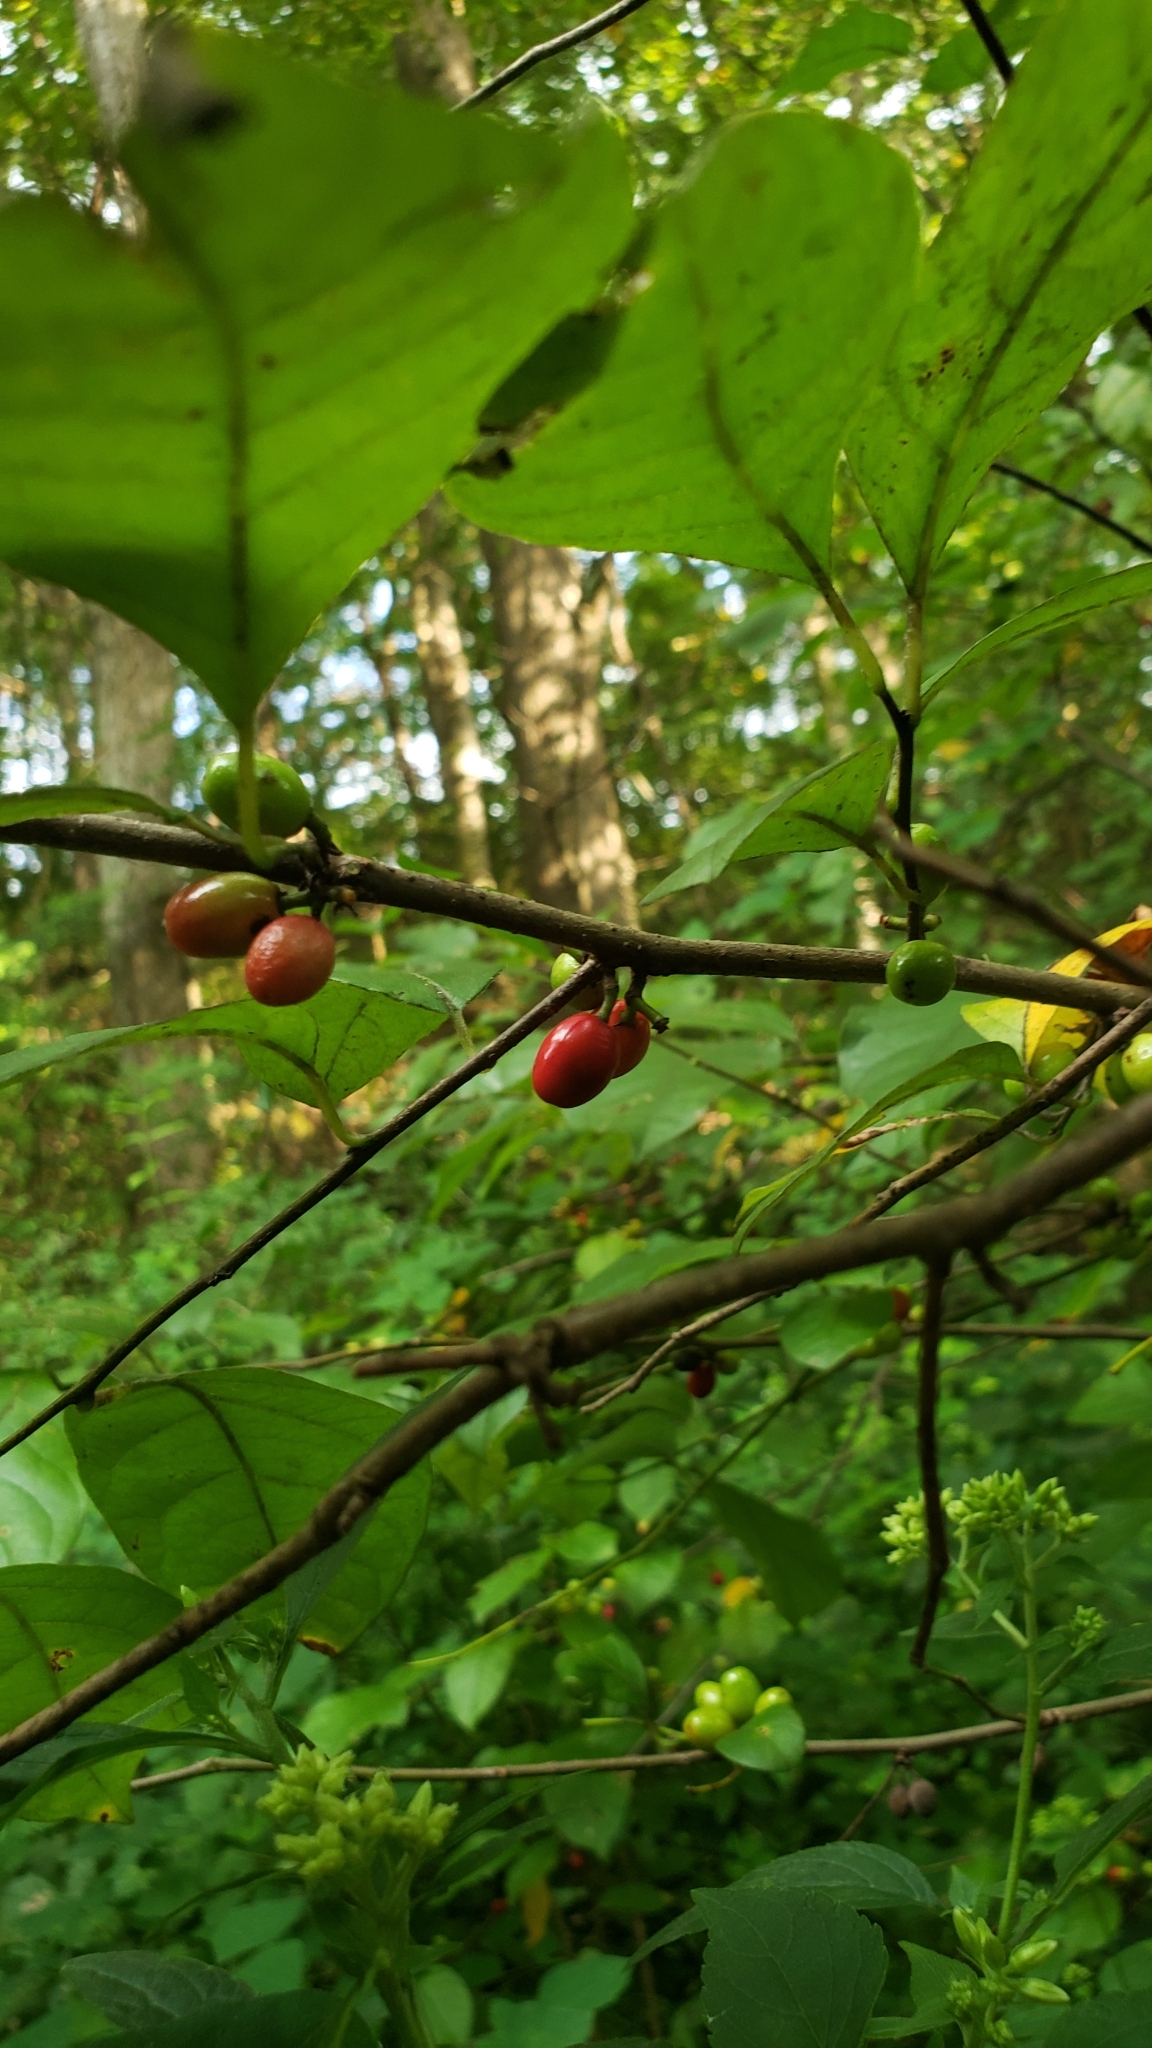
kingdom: Plantae
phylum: Tracheophyta
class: Magnoliopsida
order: Laurales
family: Lauraceae
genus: Lindera
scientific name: Lindera benzoin
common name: Spicebush
